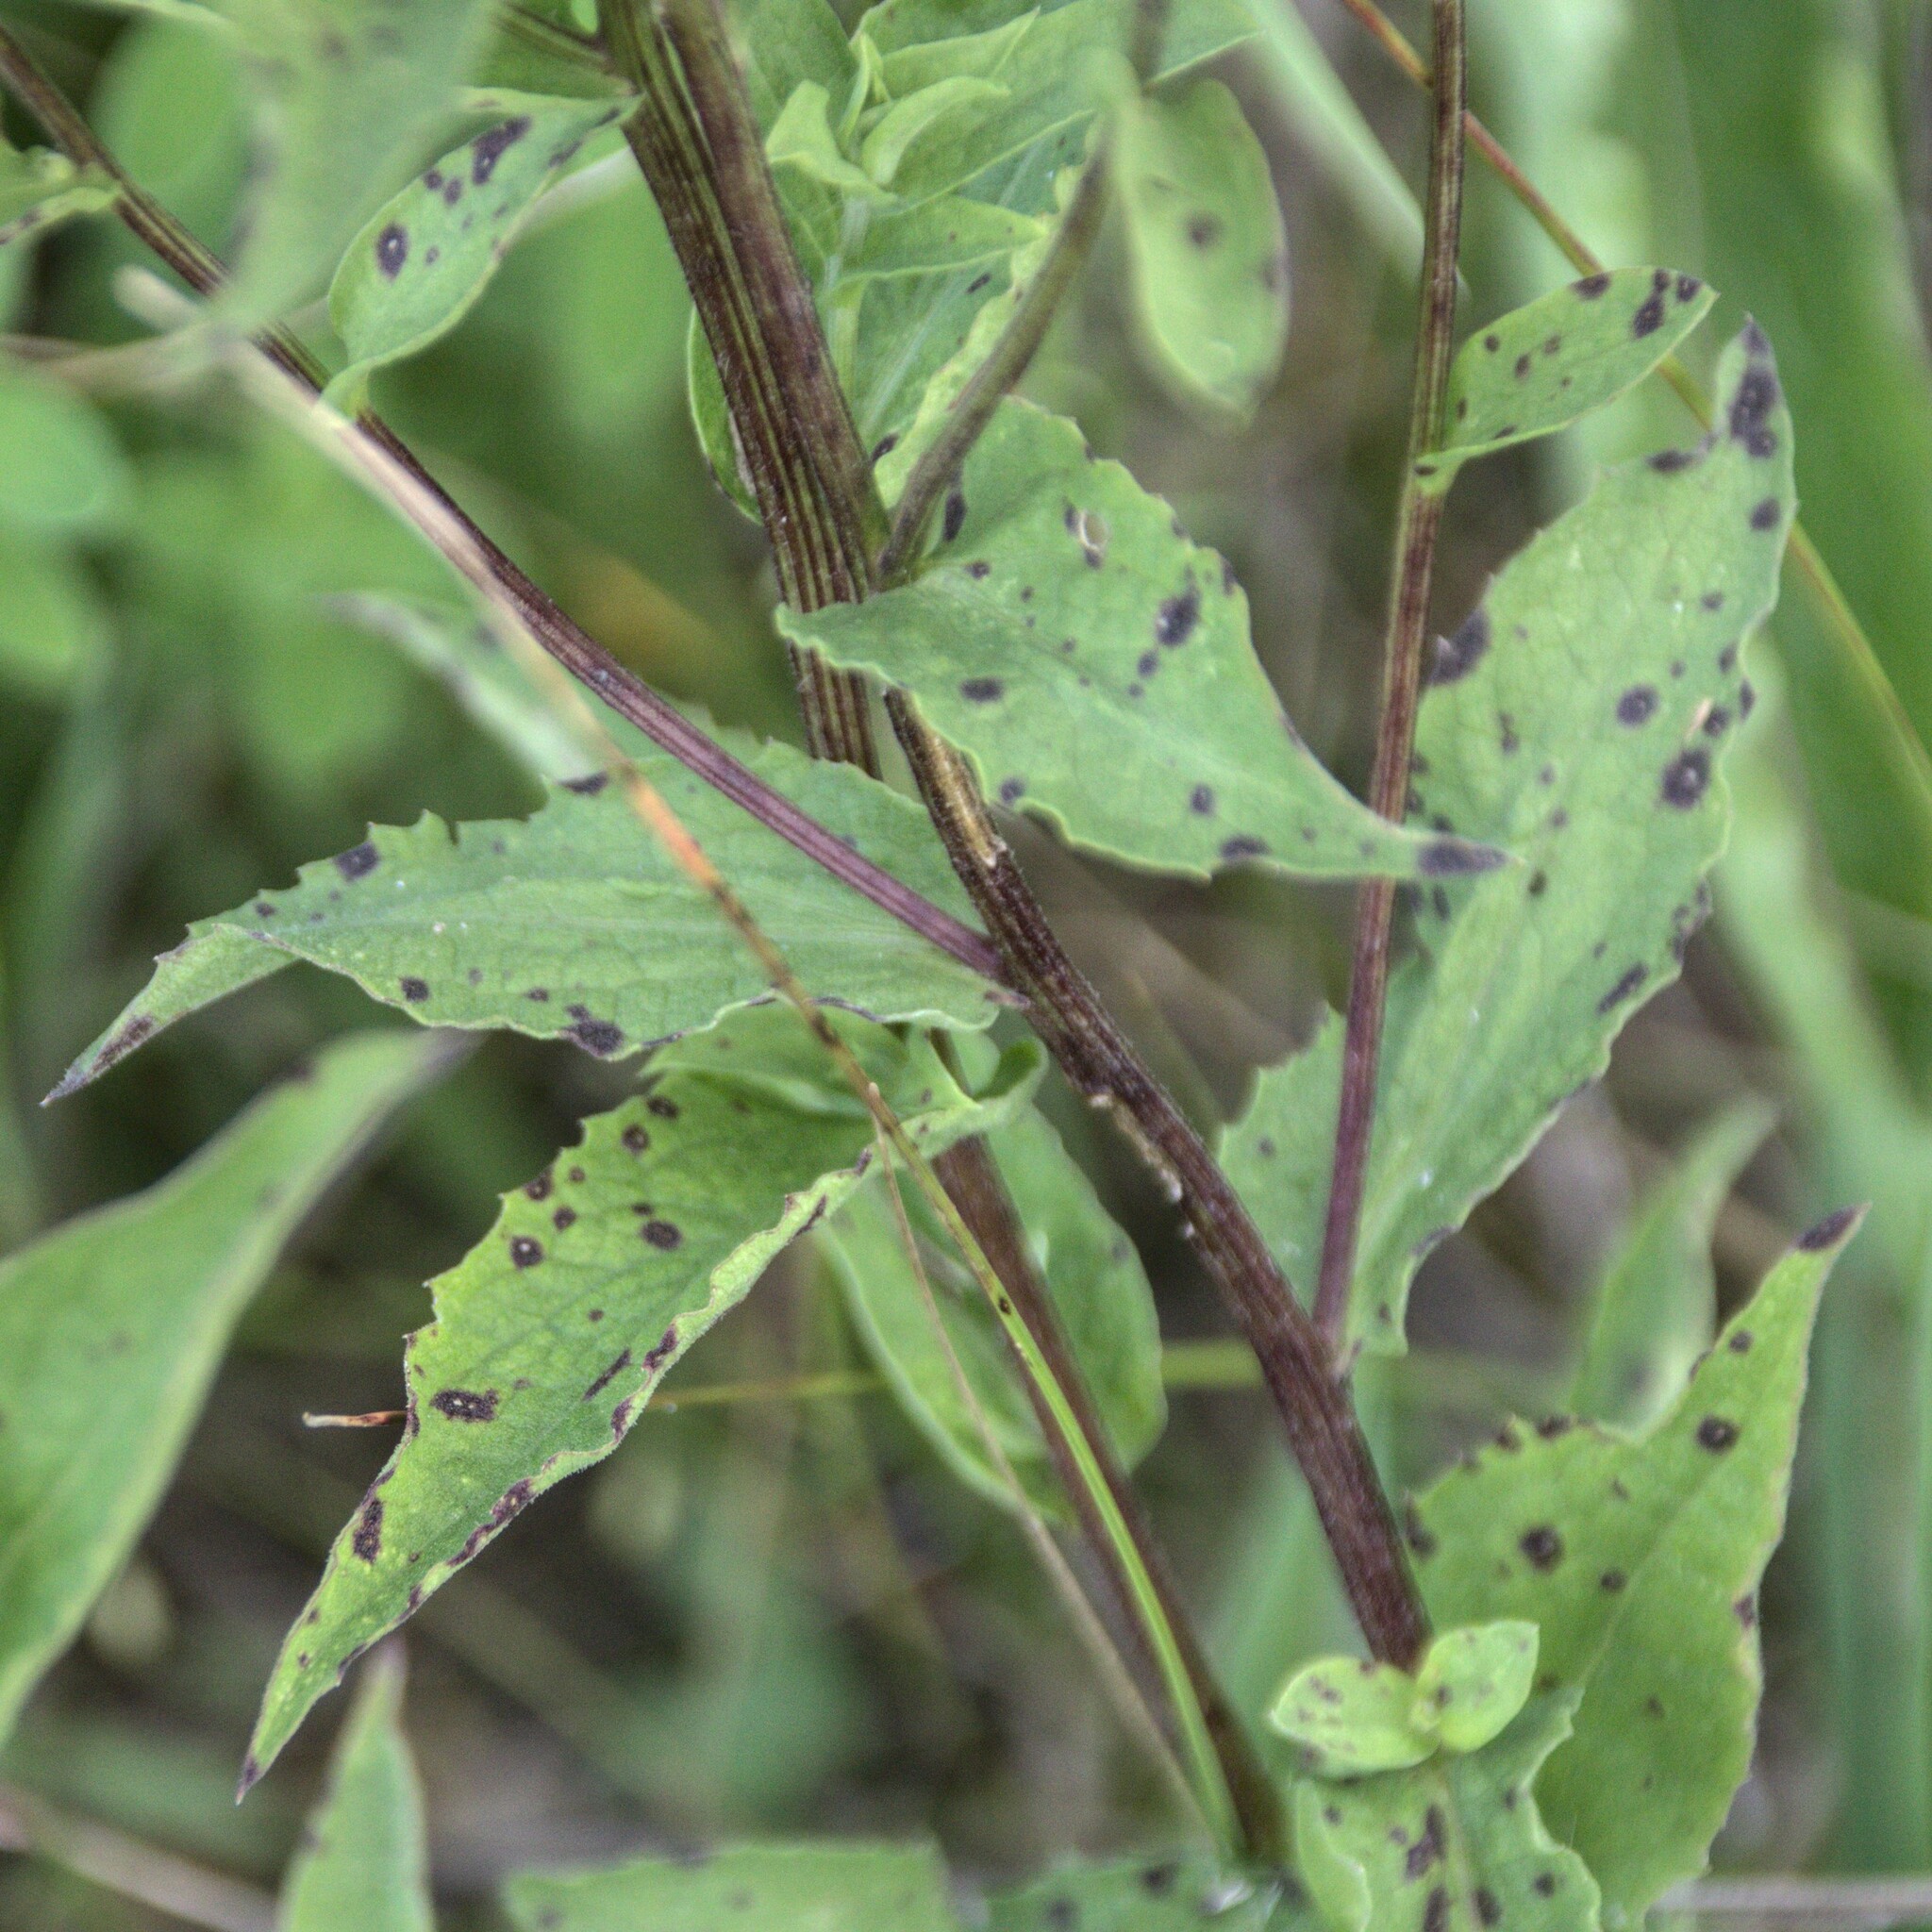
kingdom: Plantae
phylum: Tracheophyta
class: Magnoliopsida
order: Asterales
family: Asteraceae
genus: Centaurea
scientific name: Centaurea phrygia
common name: Wig knapweed
